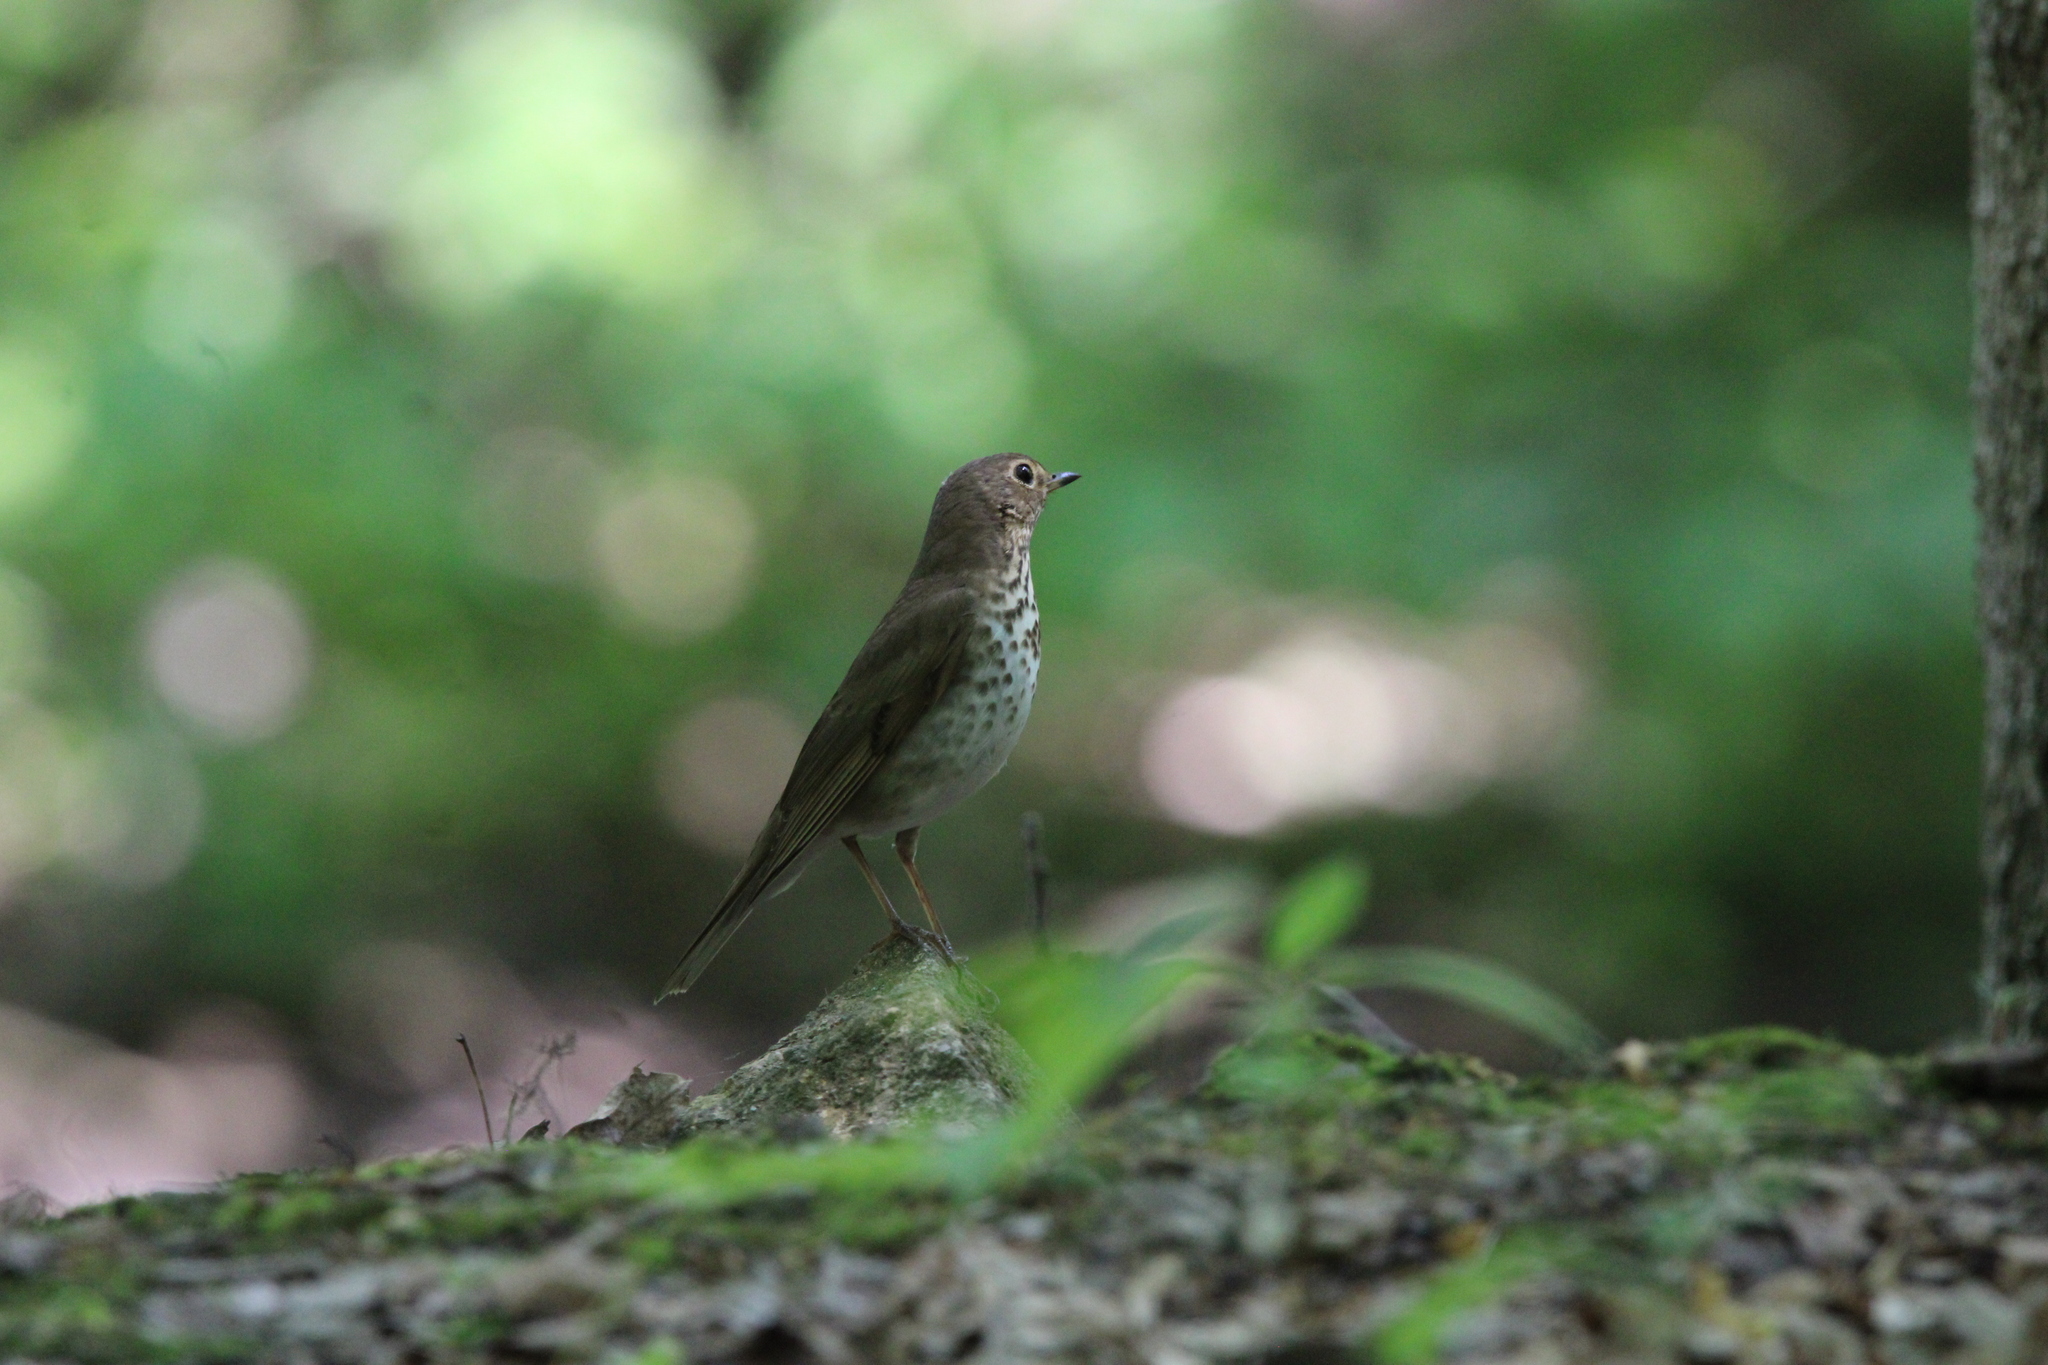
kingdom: Animalia
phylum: Chordata
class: Aves
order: Passeriformes
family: Turdidae
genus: Catharus
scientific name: Catharus ustulatus
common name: Swainson's thrush
